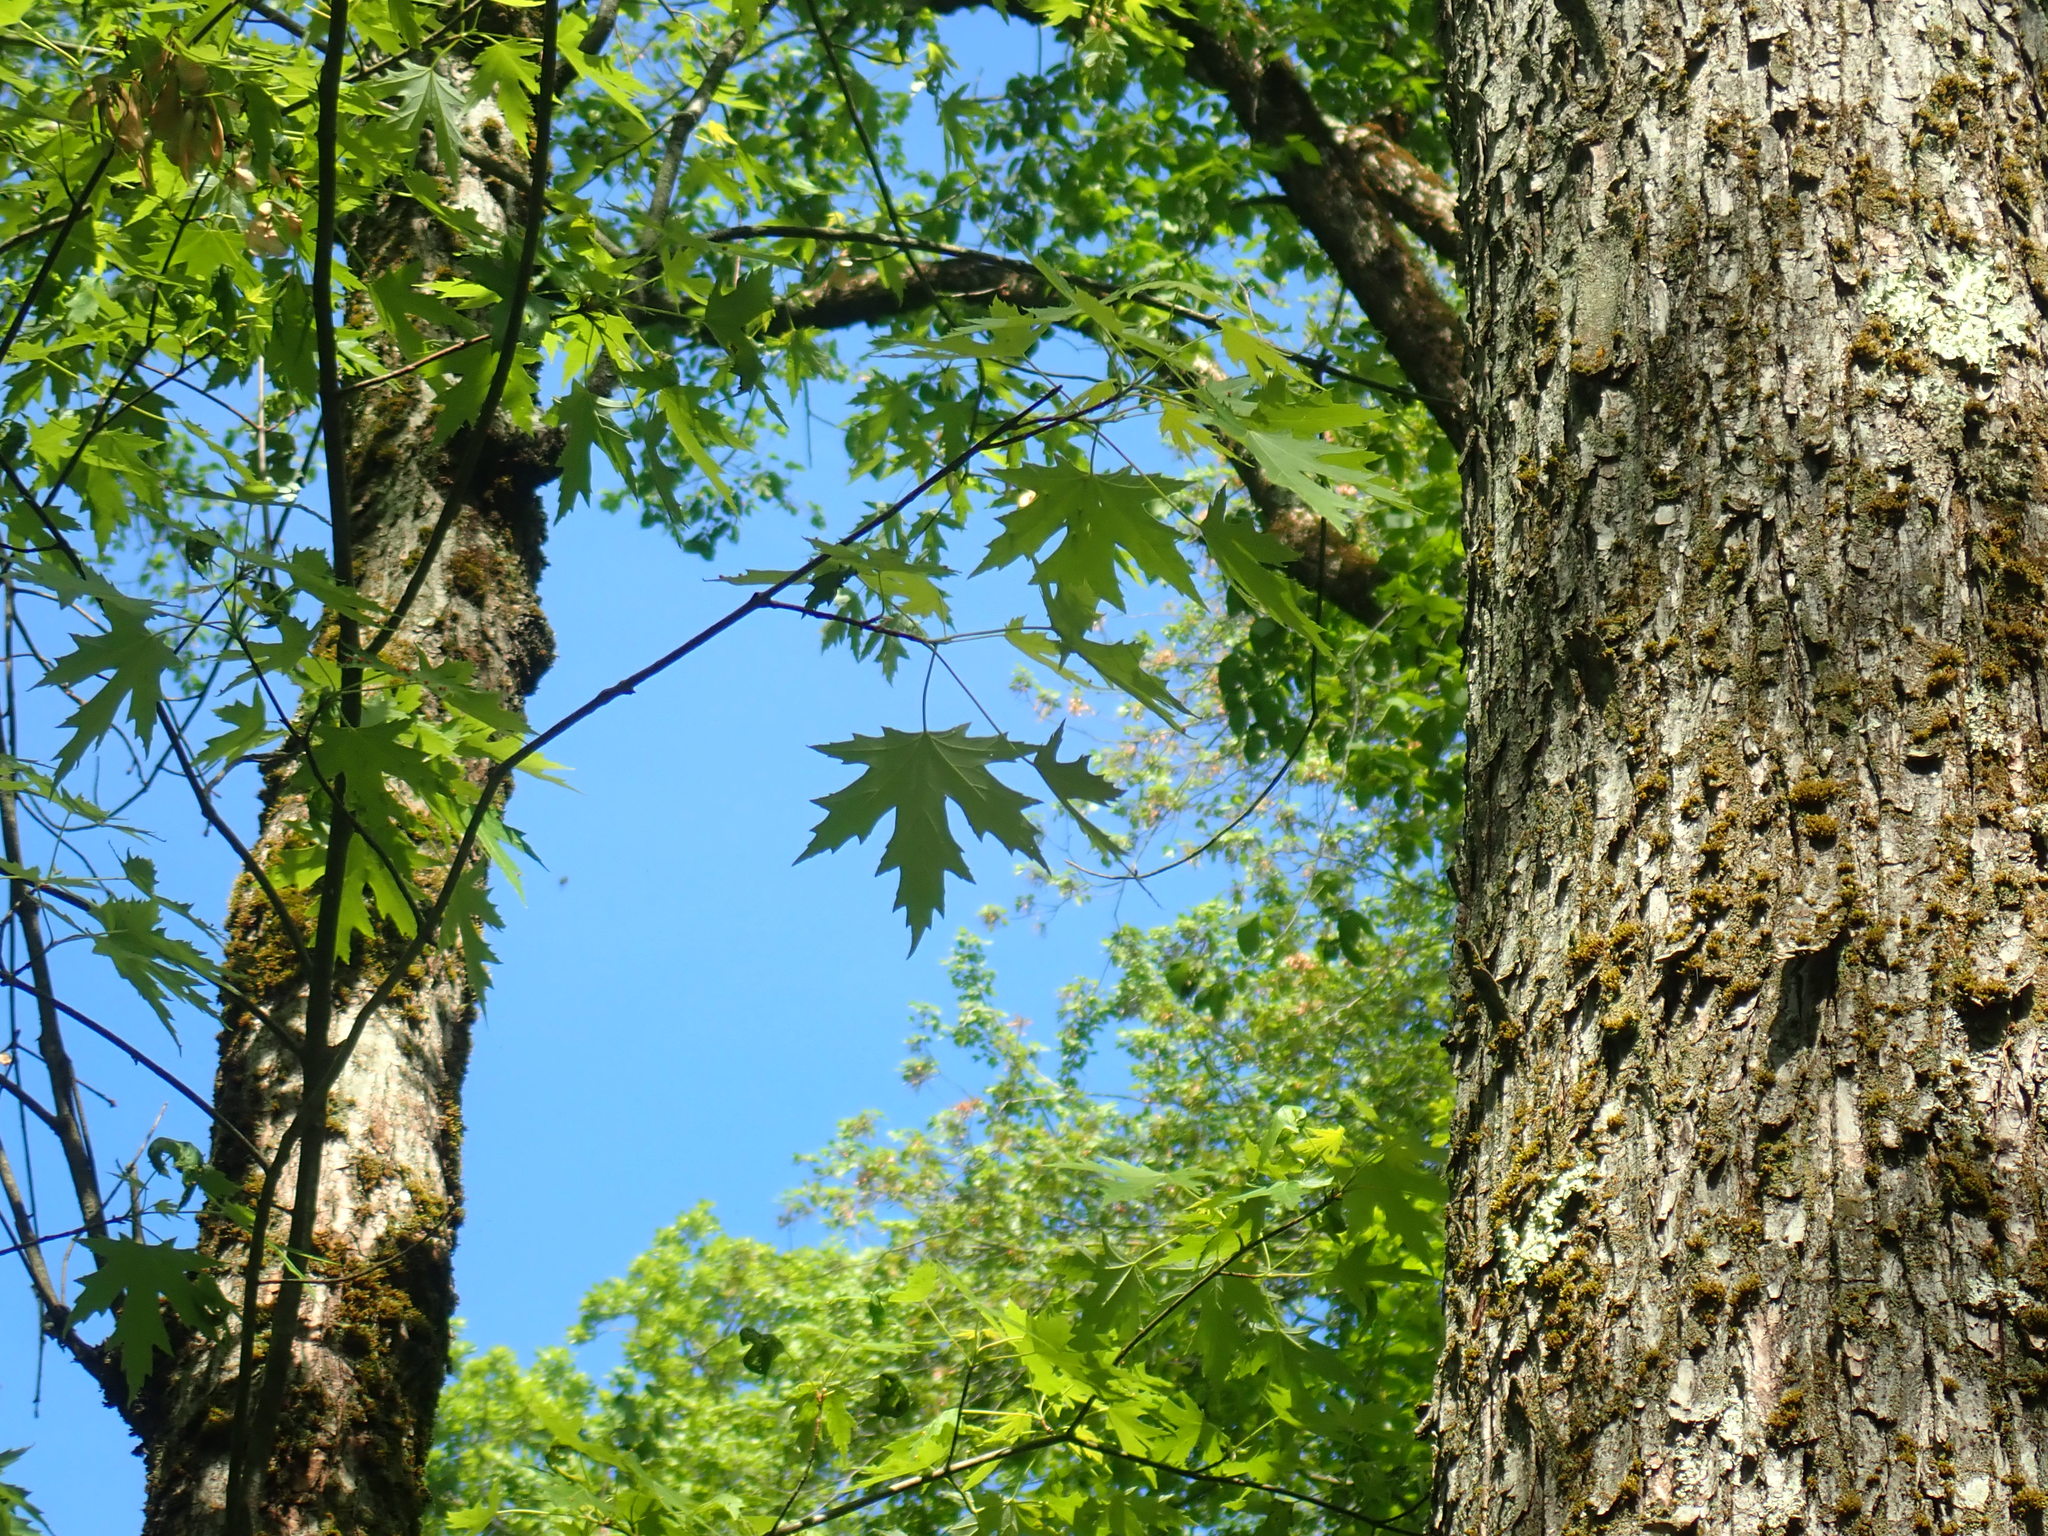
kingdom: Plantae
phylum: Tracheophyta
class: Magnoliopsida
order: Sapindales
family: Sapindaceae
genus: Acer
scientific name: Acer saccharinum
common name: Silver maple
